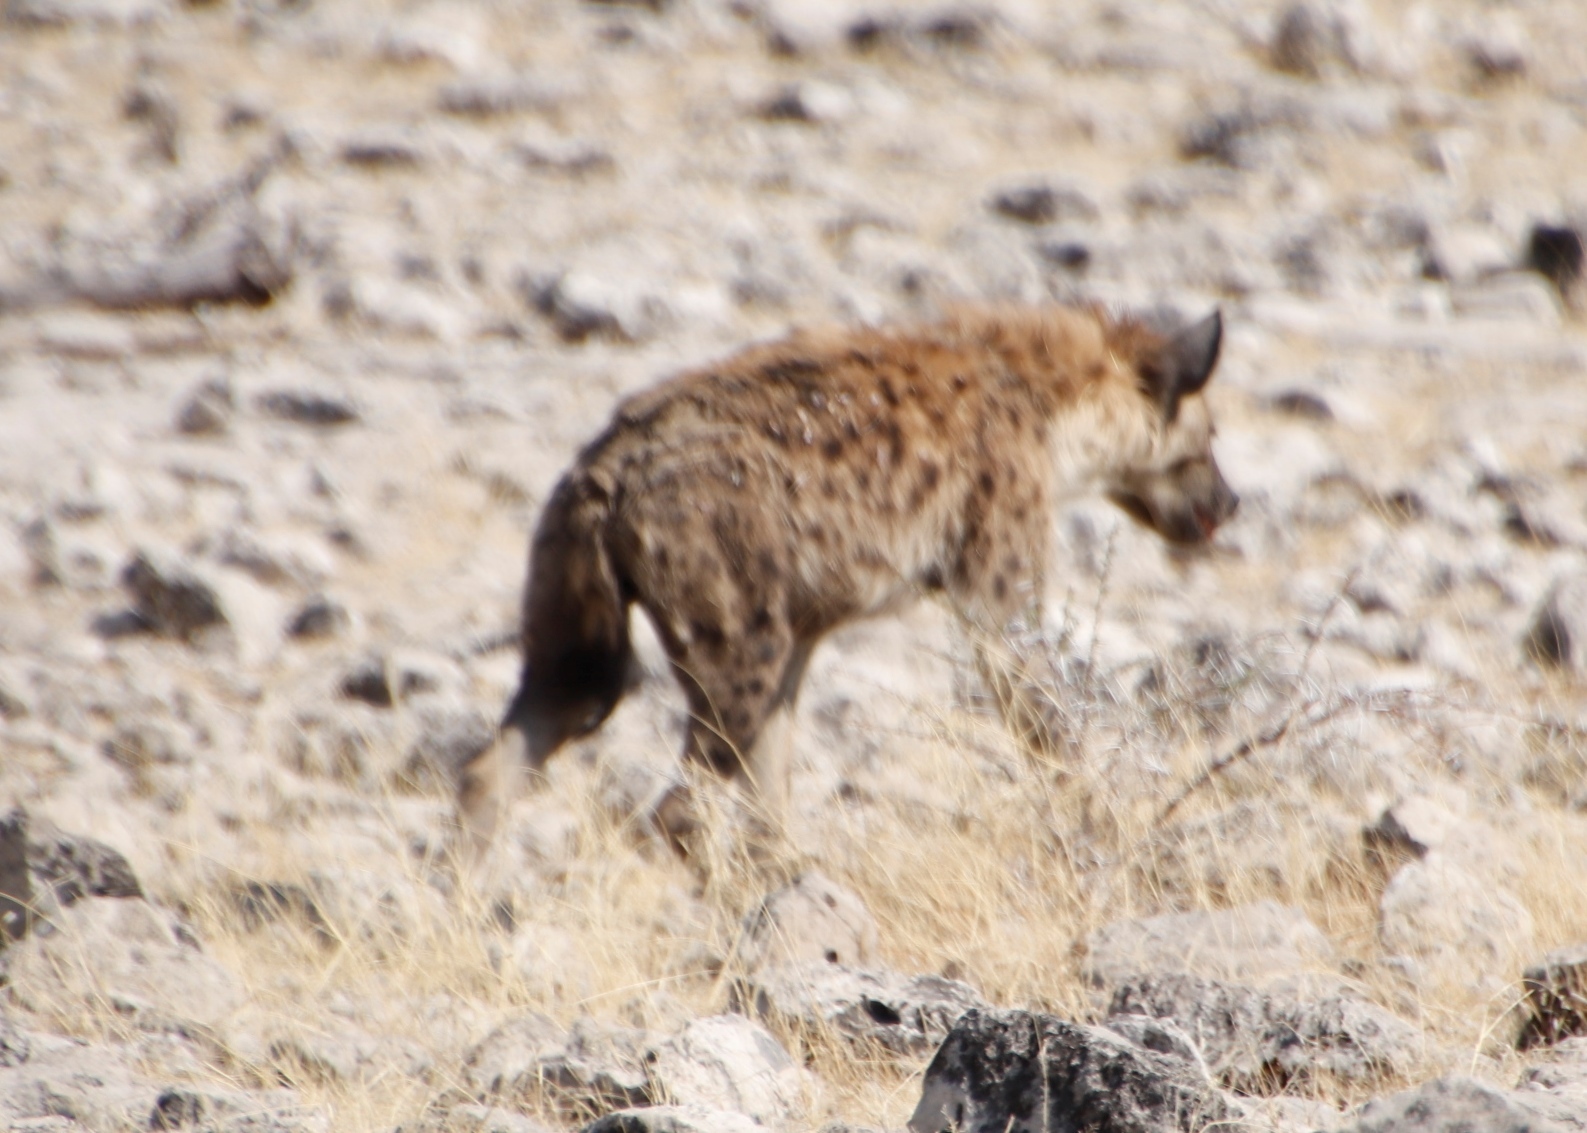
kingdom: Animalia
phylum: Chordata
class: Mammalia
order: Carnivora
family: Hyaenidae
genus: Crocuta
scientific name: Crocuta crocuta
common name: Spotted hyaena
